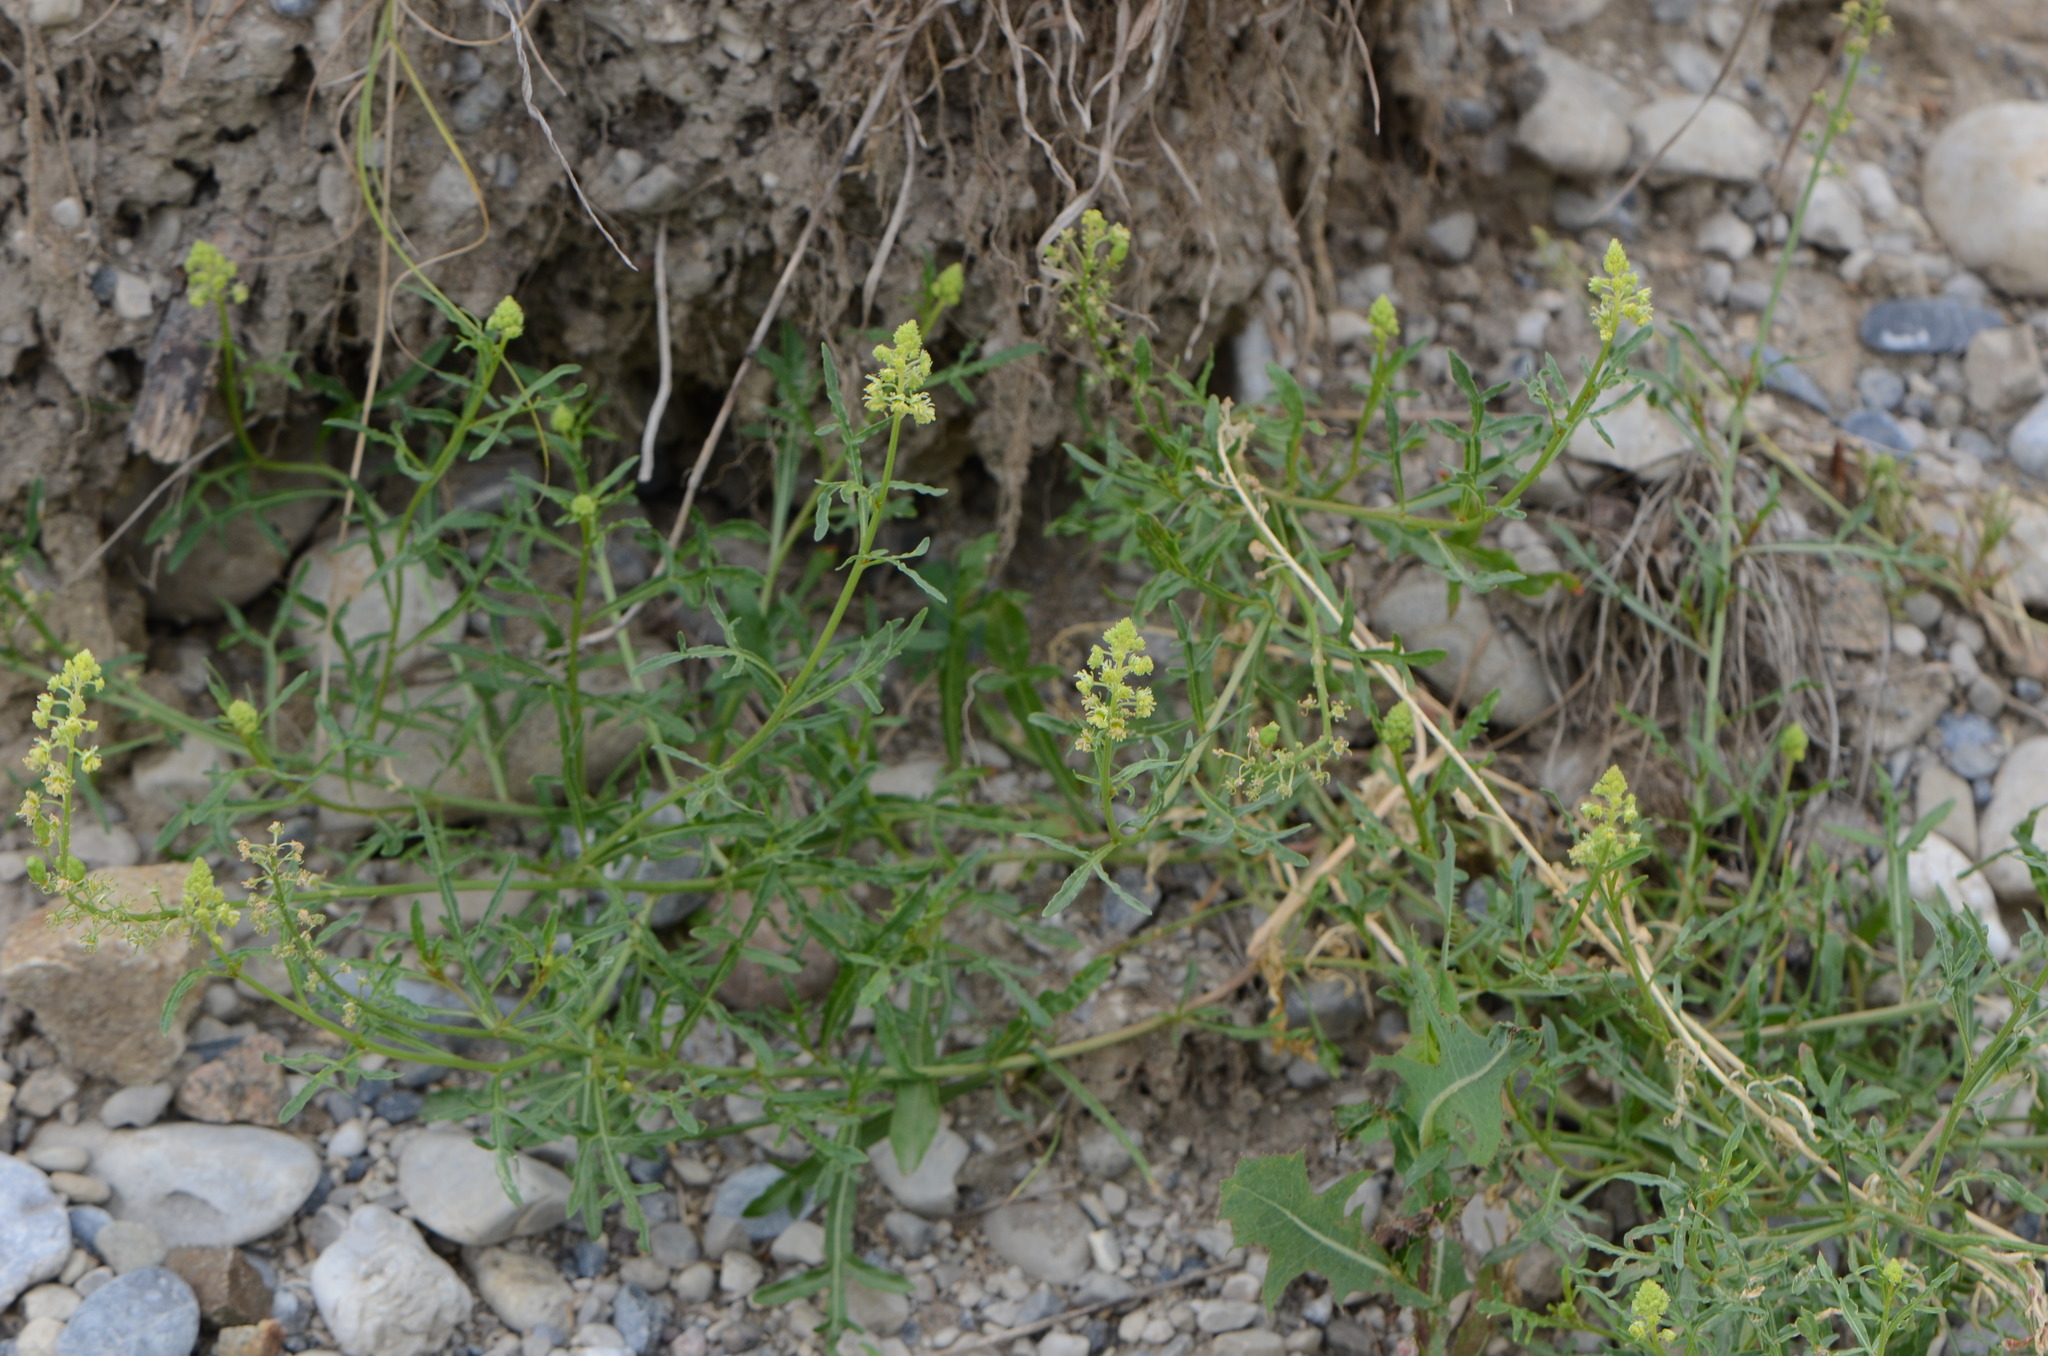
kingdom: Plantae
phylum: Tracheophyta
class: Magnoliopsida
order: Brassicales
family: Resedaceae
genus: Reseda
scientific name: Reseda lutea
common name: Wild mignonette
